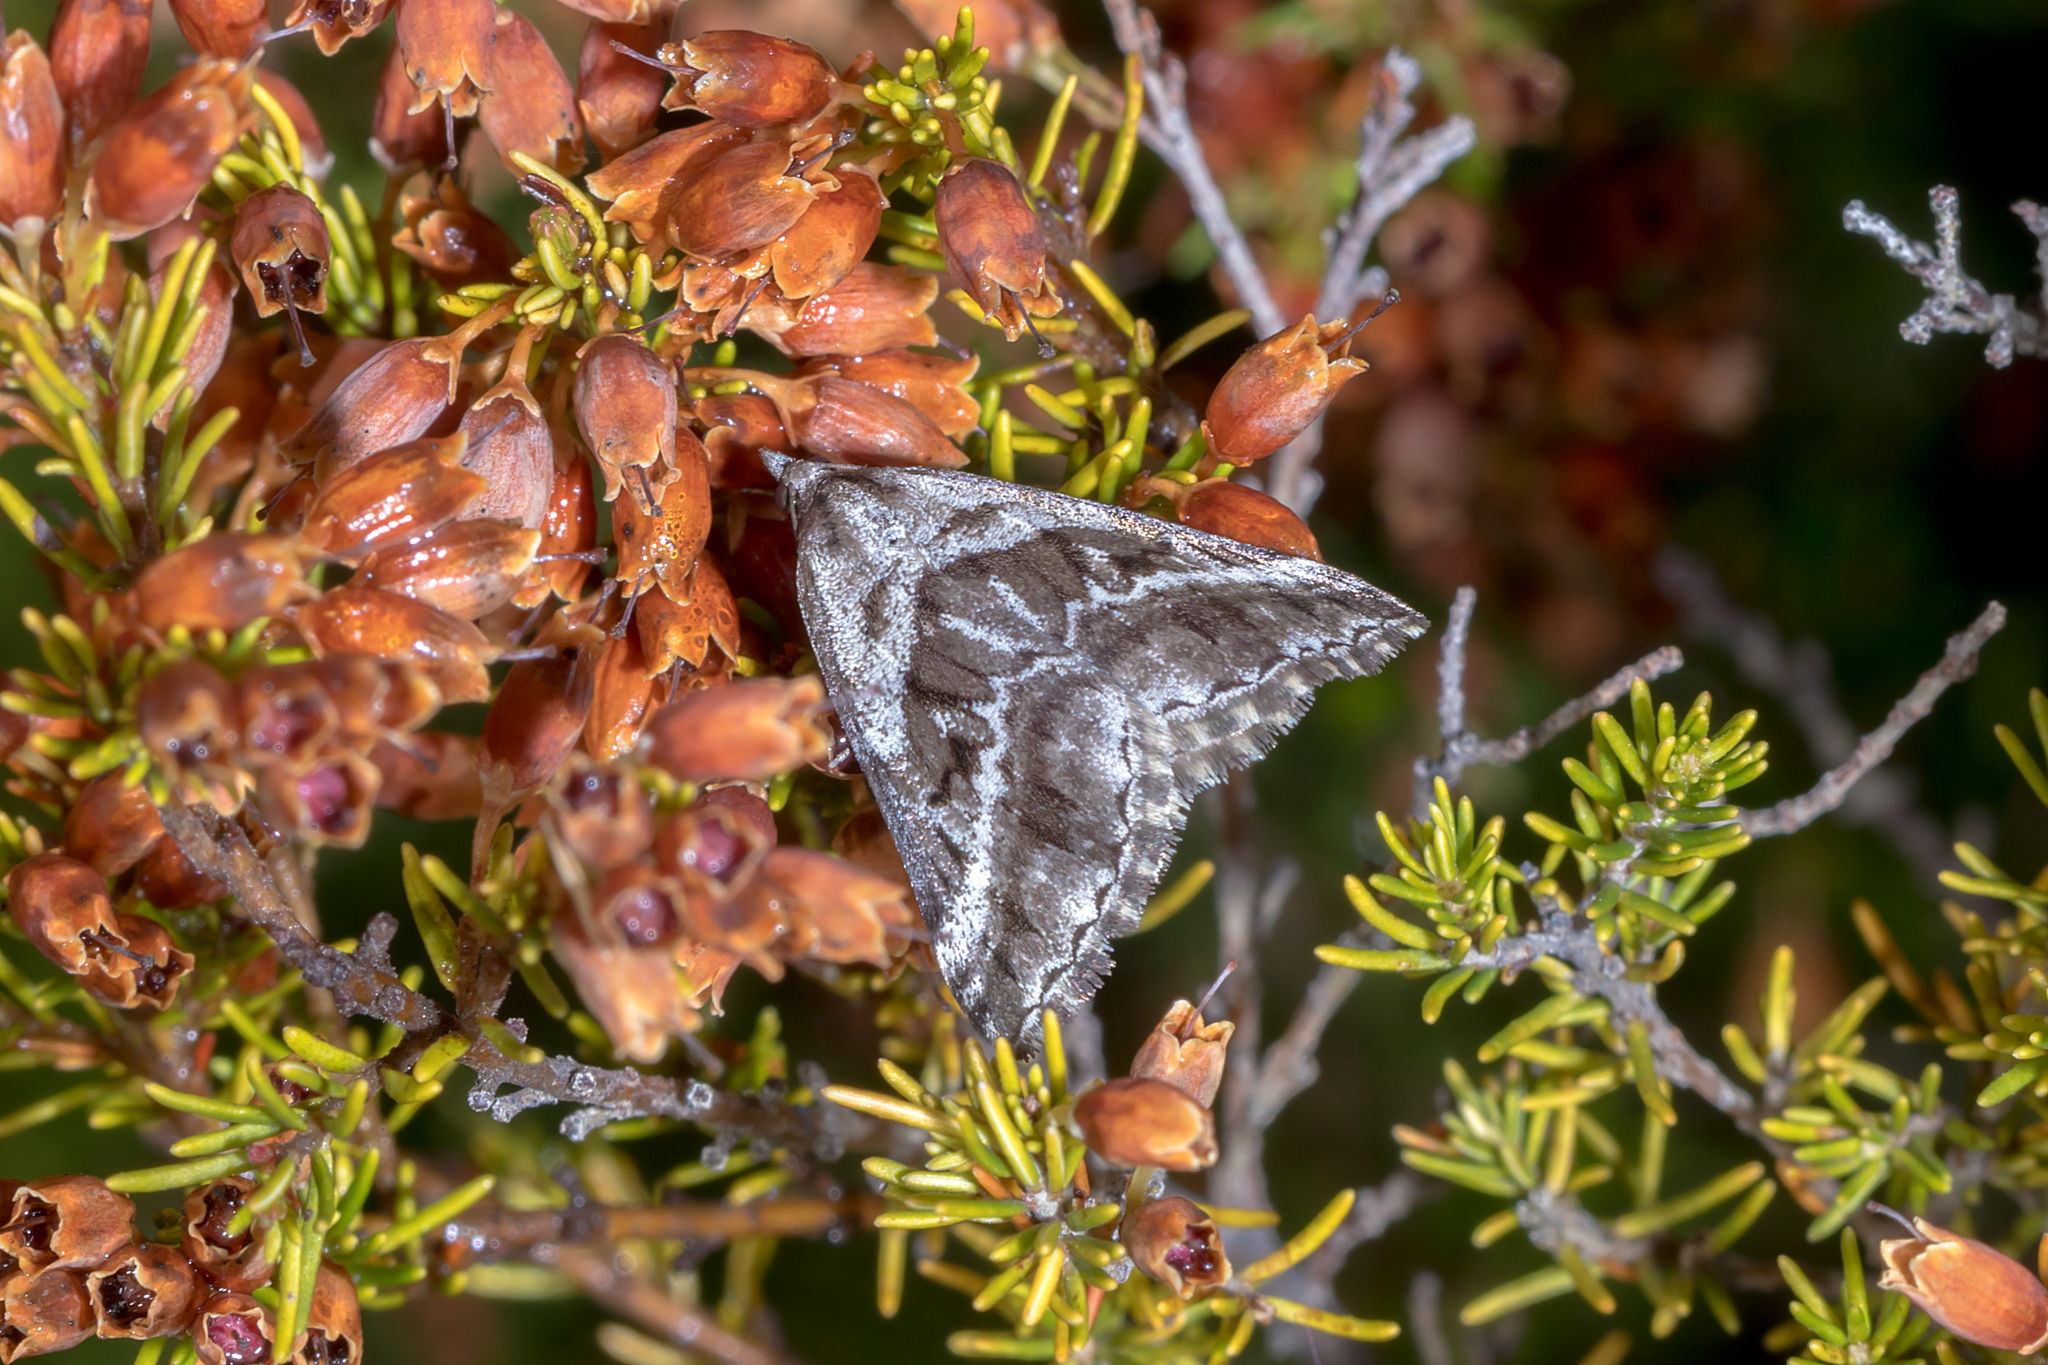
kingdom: Animalia
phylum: Arthropoda
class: Insecta
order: Lepidoptera
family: Geometridae
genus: Dichromodes
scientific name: Dichromodes stilbiata
